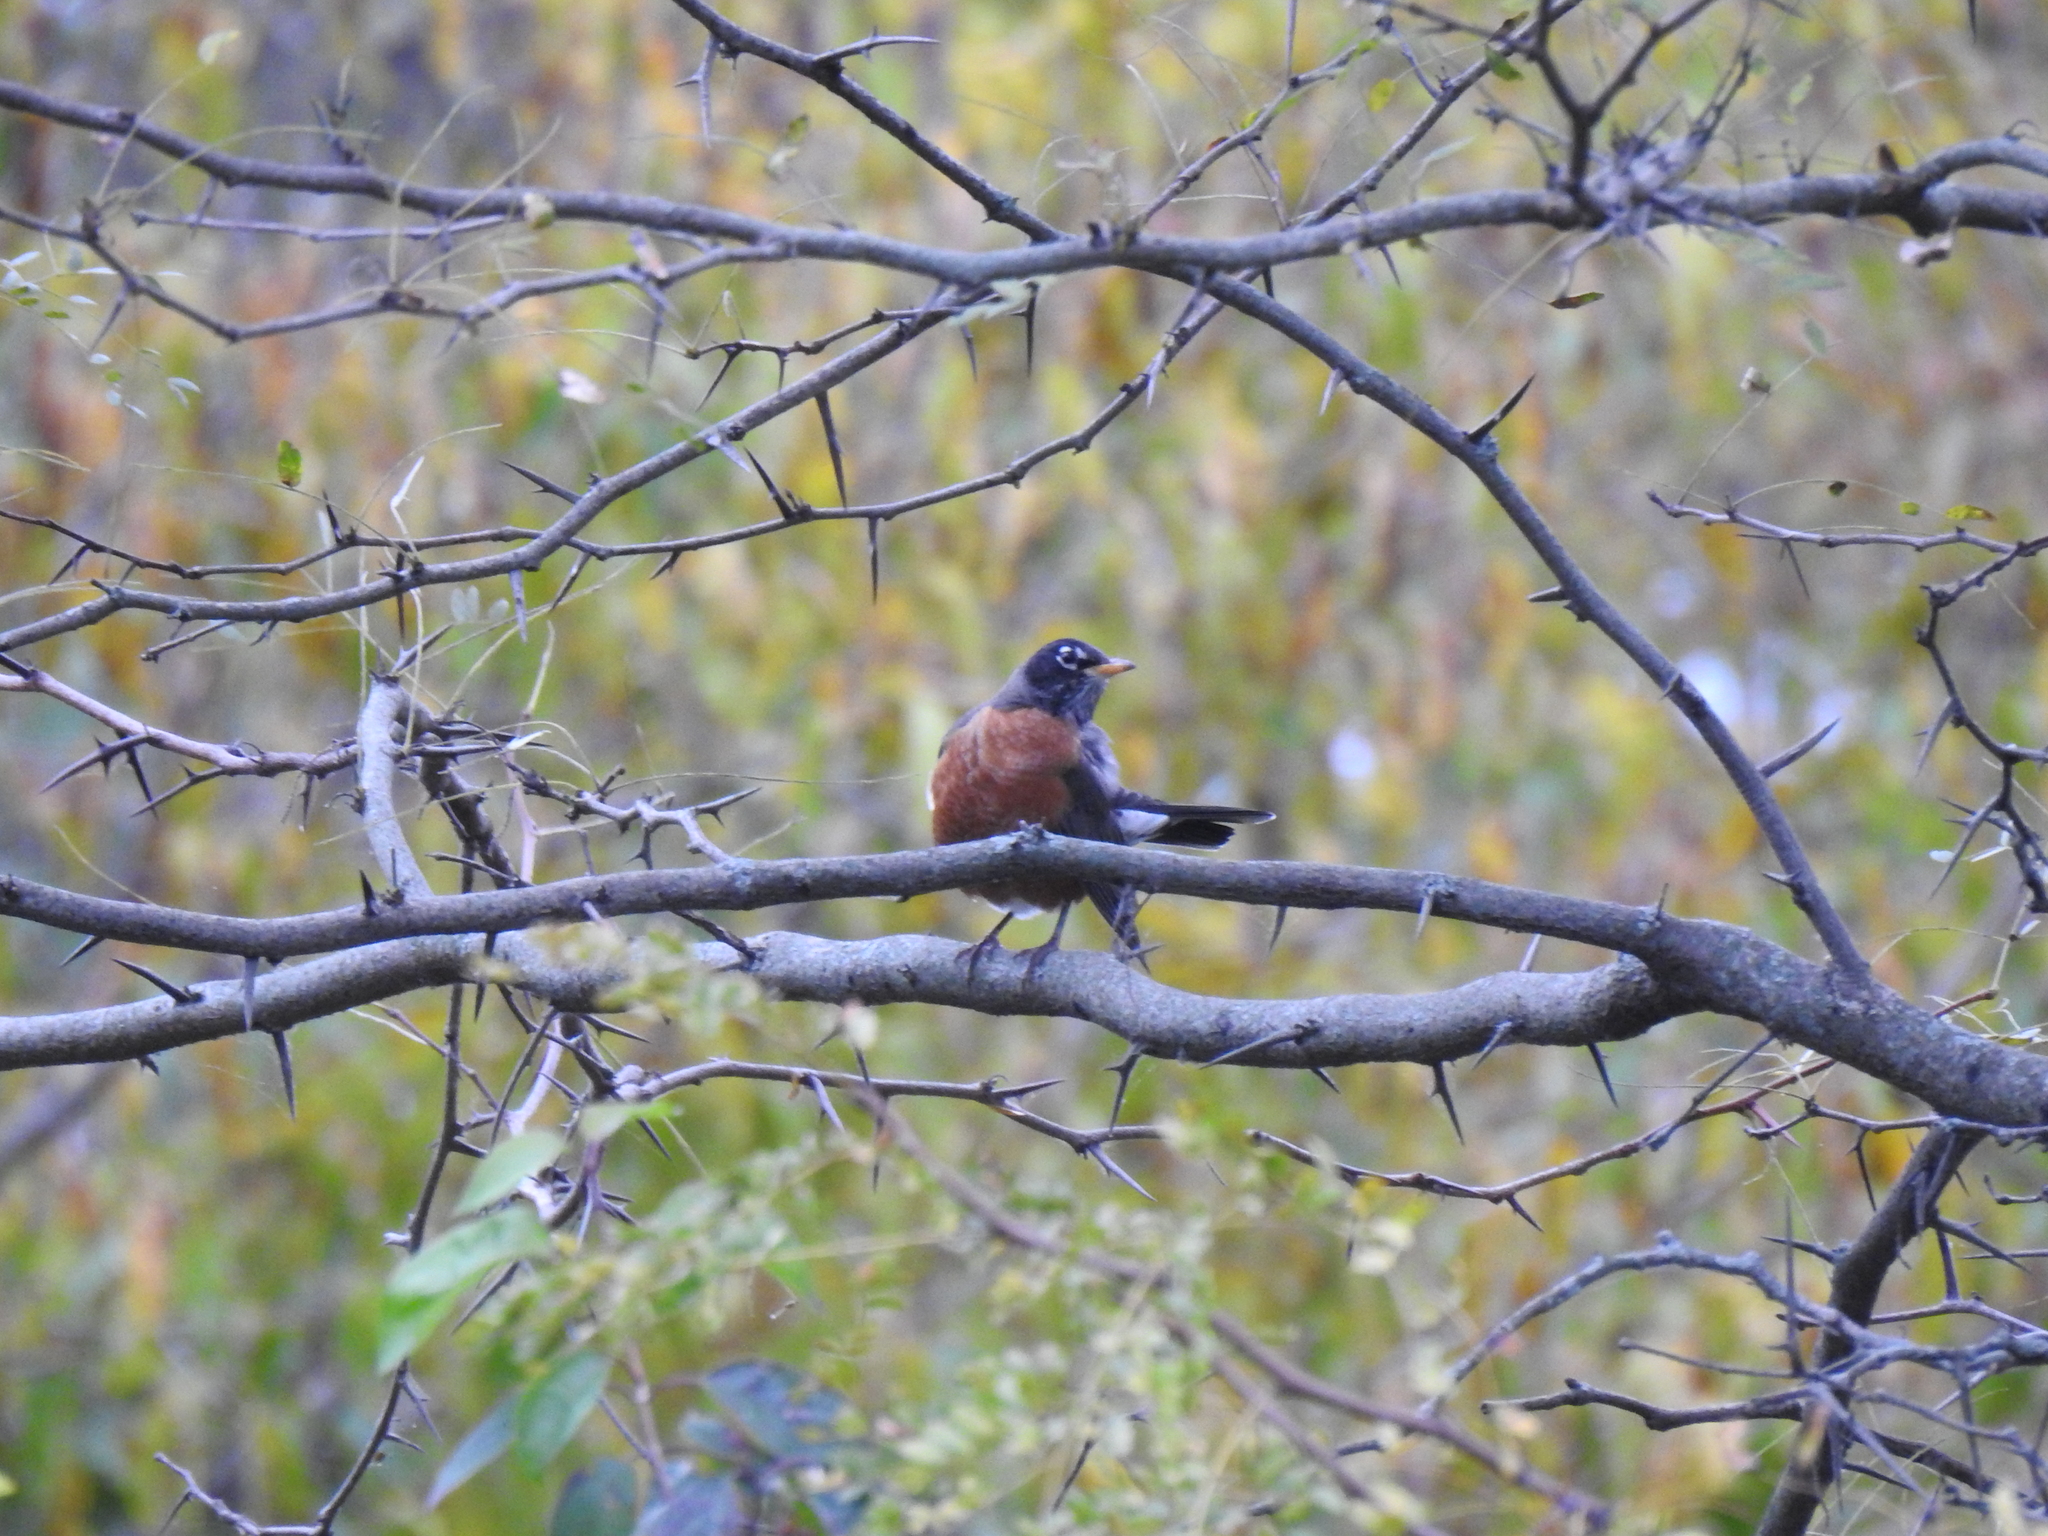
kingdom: Animalia
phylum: Chordata
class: Aves
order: Passeriformes
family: Turdidae
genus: Turdus
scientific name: Turdus migratorius
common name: American robin
